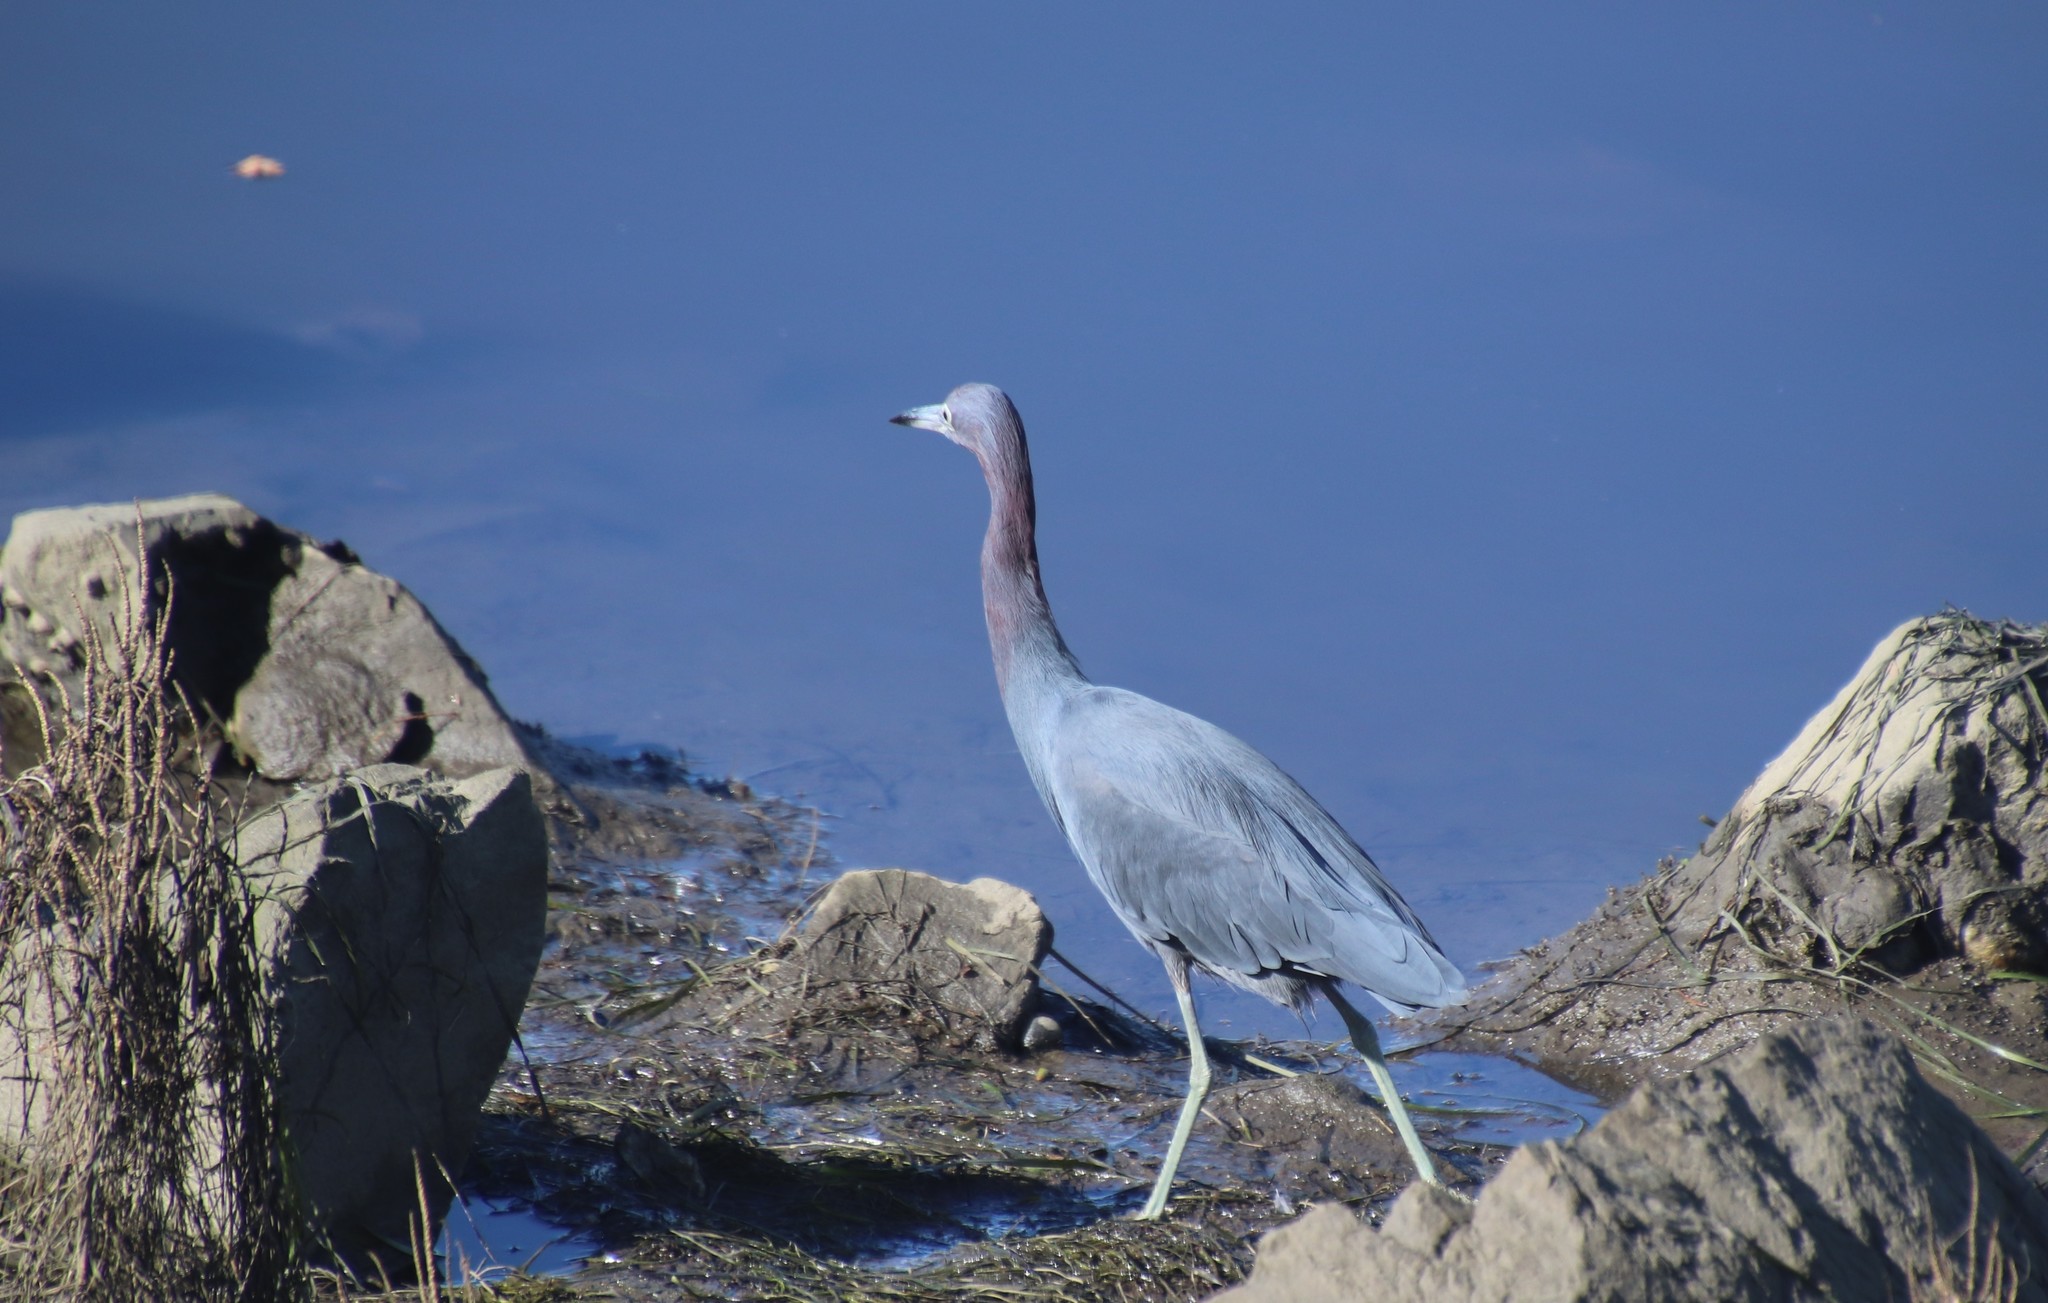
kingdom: Animalia
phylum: Chordata
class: Aves
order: Pelecaniformes
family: Ardeidae
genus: Egretta
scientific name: Egretta caerulea
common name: Little blue heron
